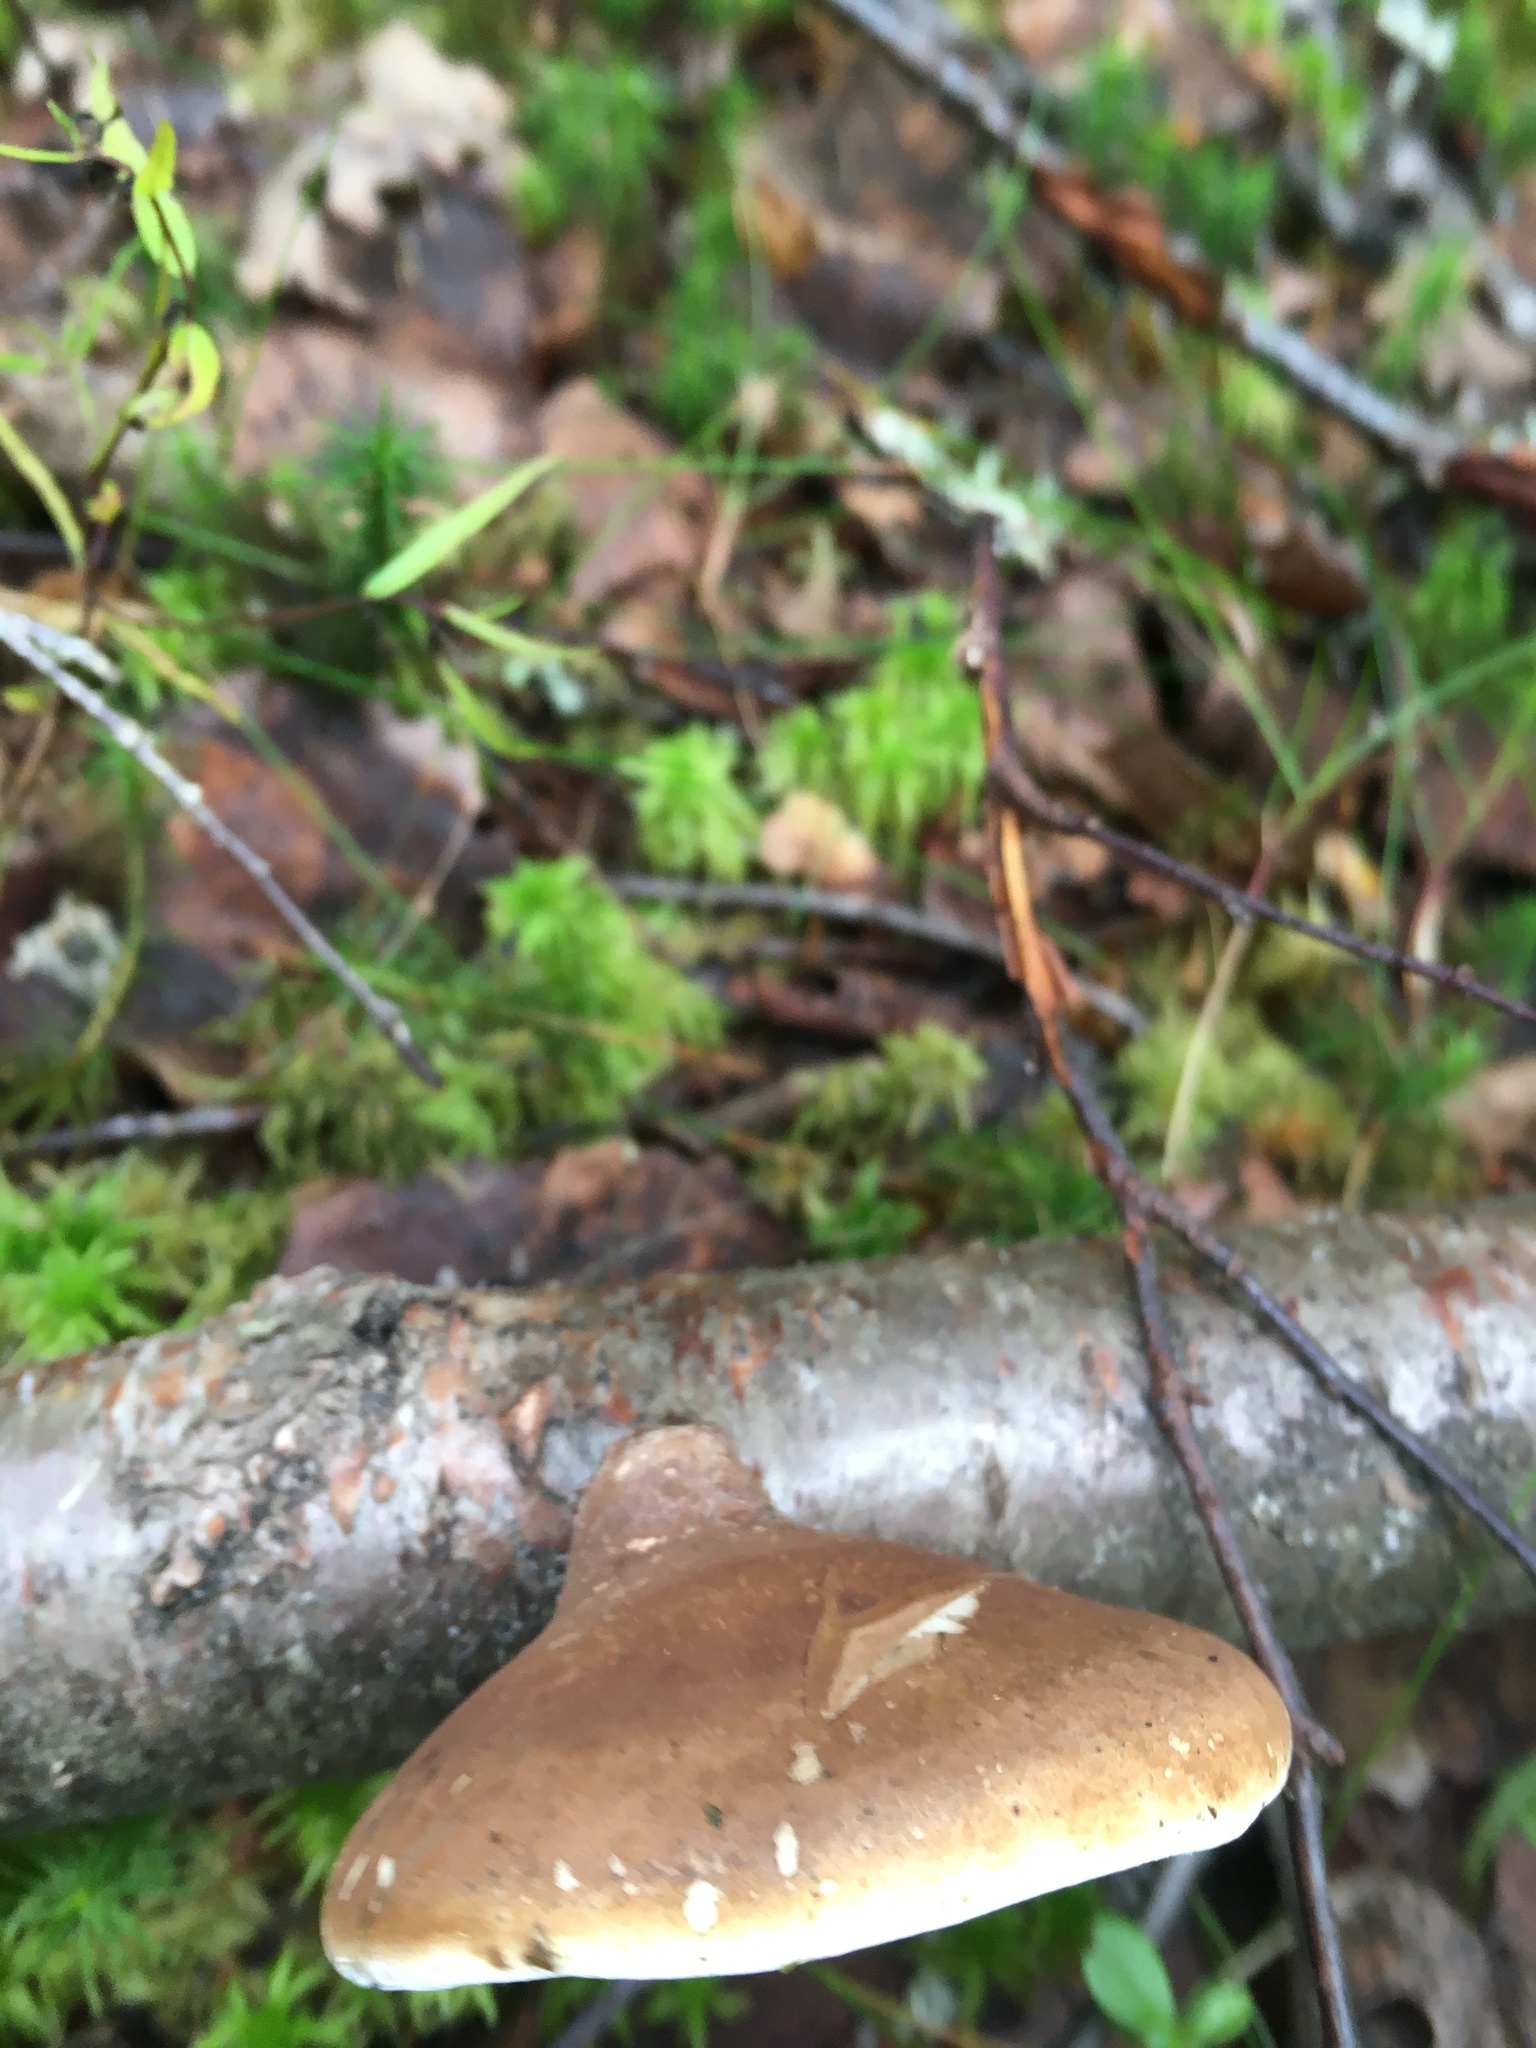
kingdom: Fungi
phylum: Basidiomycota
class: Agaricomycetes
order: Polyporales
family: Fomitopsidaceae
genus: Fomitopsis
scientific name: Fomitopsis betulina
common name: Birch polypore
